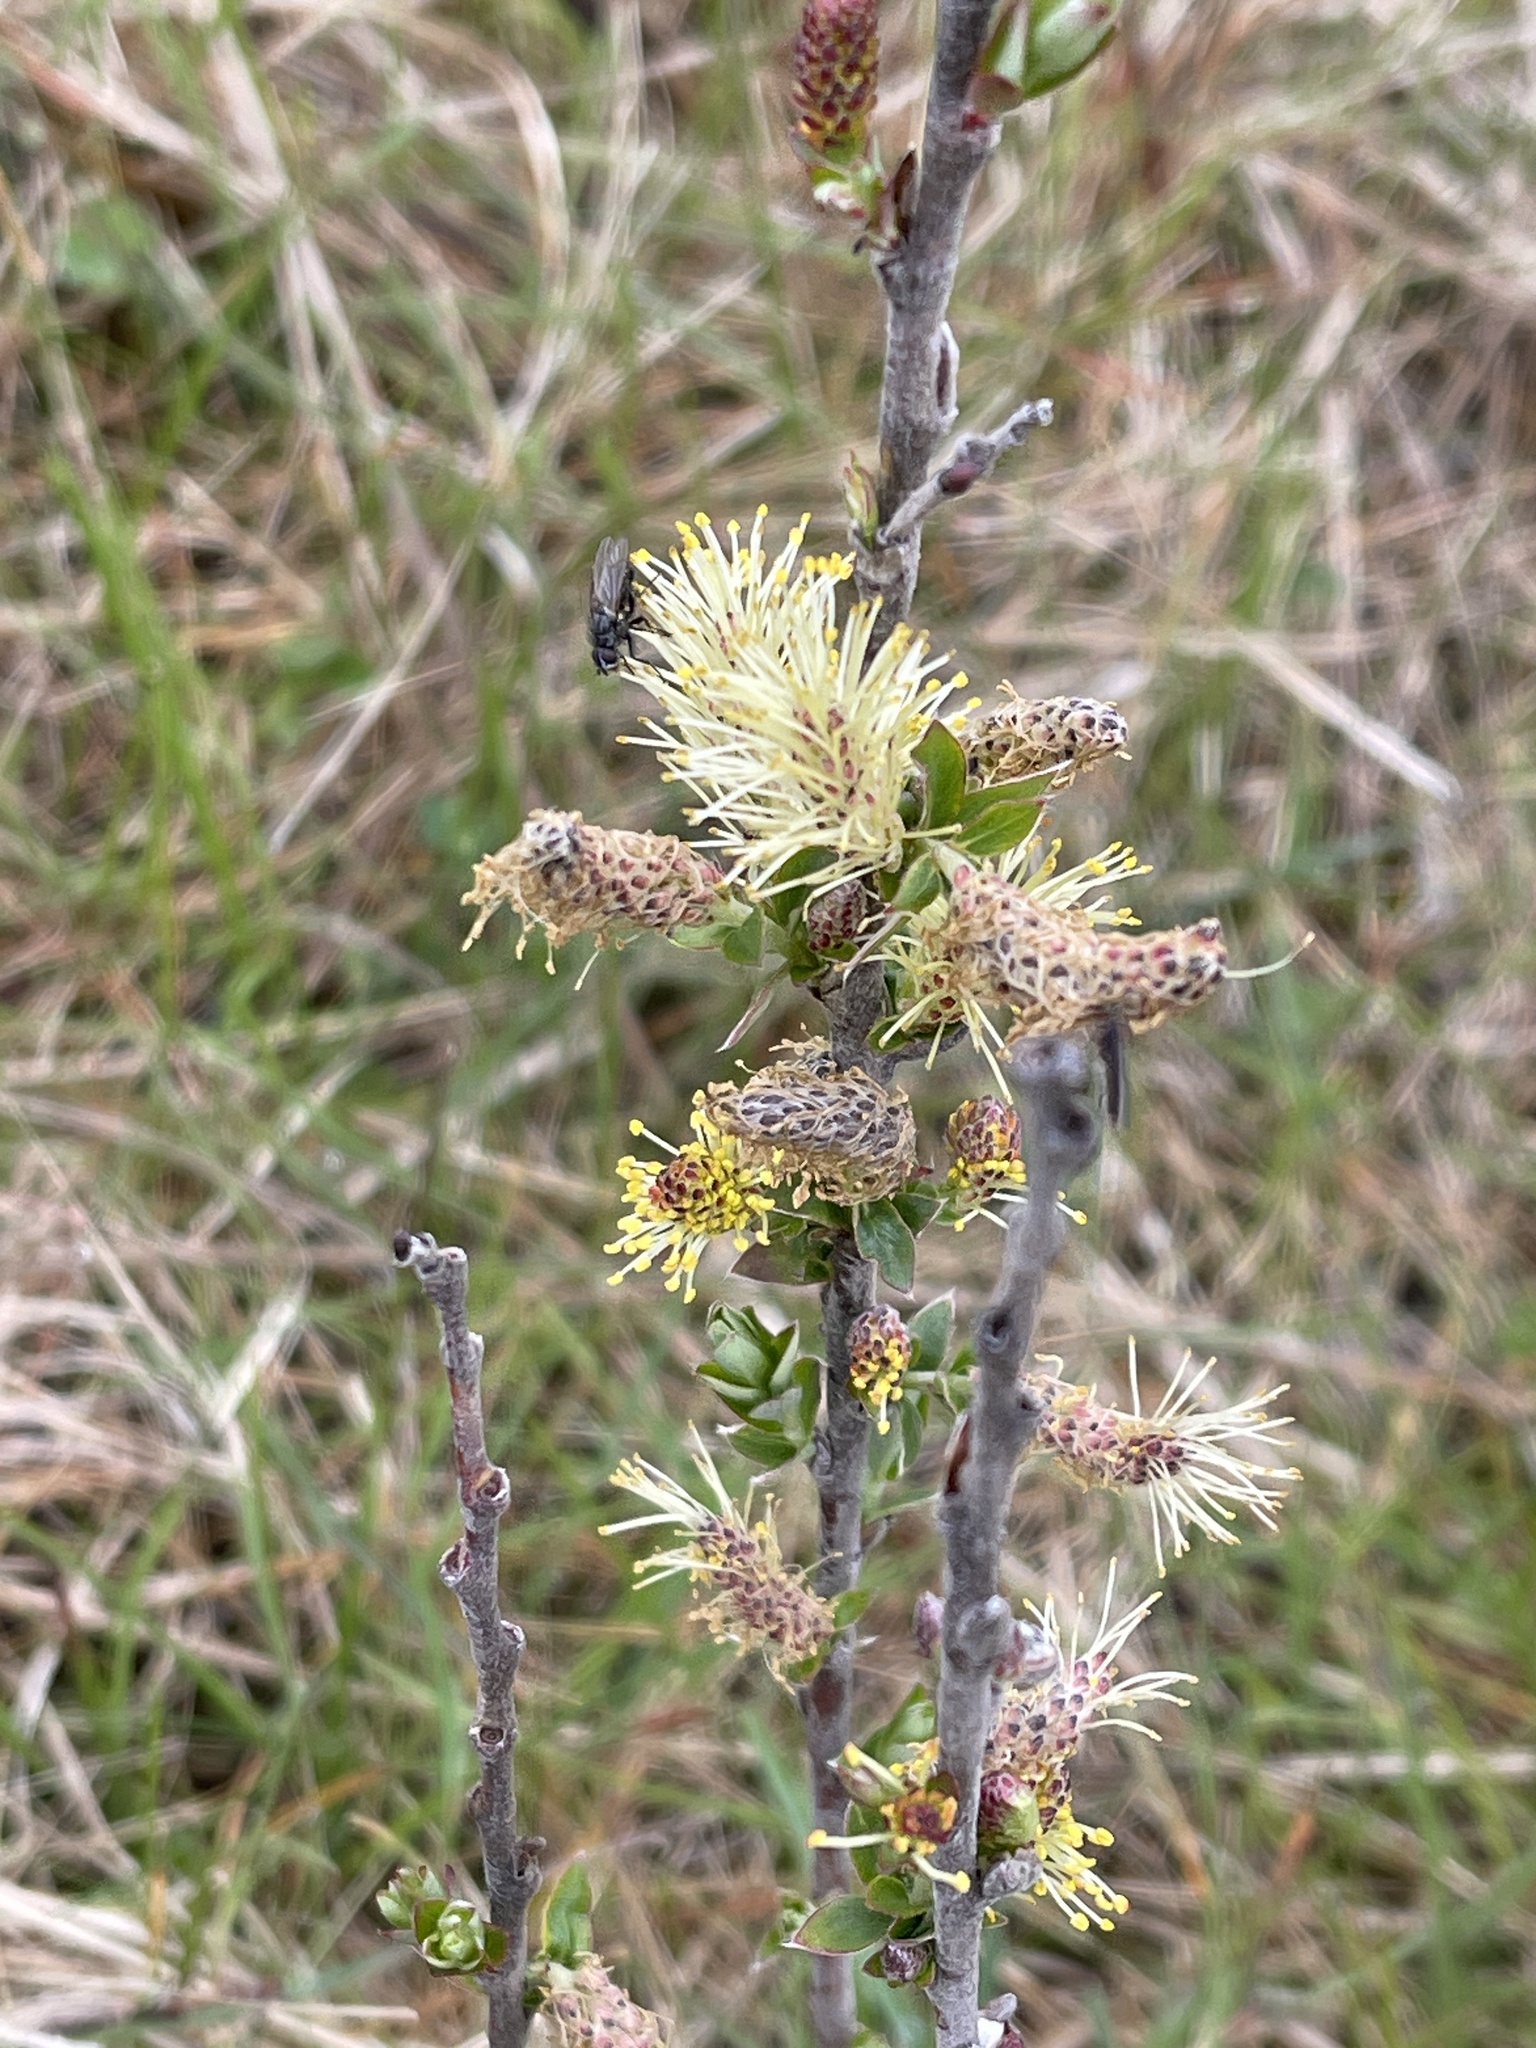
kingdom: Plantae
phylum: Tracheophyta
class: Magnoliopsida
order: Malpighiales
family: Salicaceae
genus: Salix
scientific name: Salix repens
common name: Creeping willow
